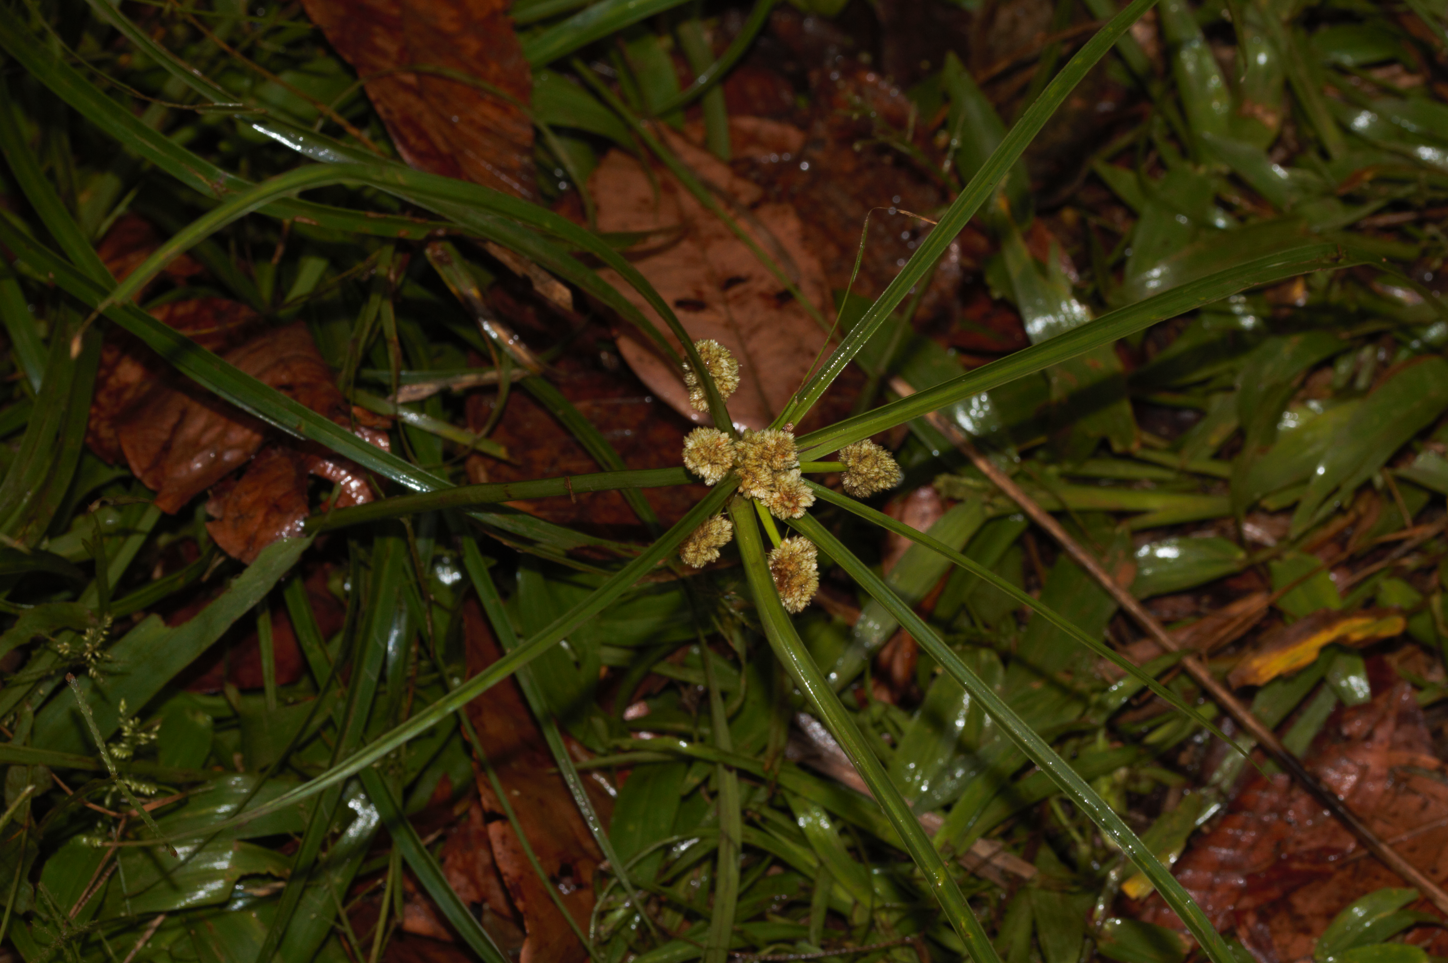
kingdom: Plantae
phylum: Tracheophyta
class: Liliopsida
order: Poales
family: Cyperaceae
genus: Cyperus
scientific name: Cyperus luzulae
